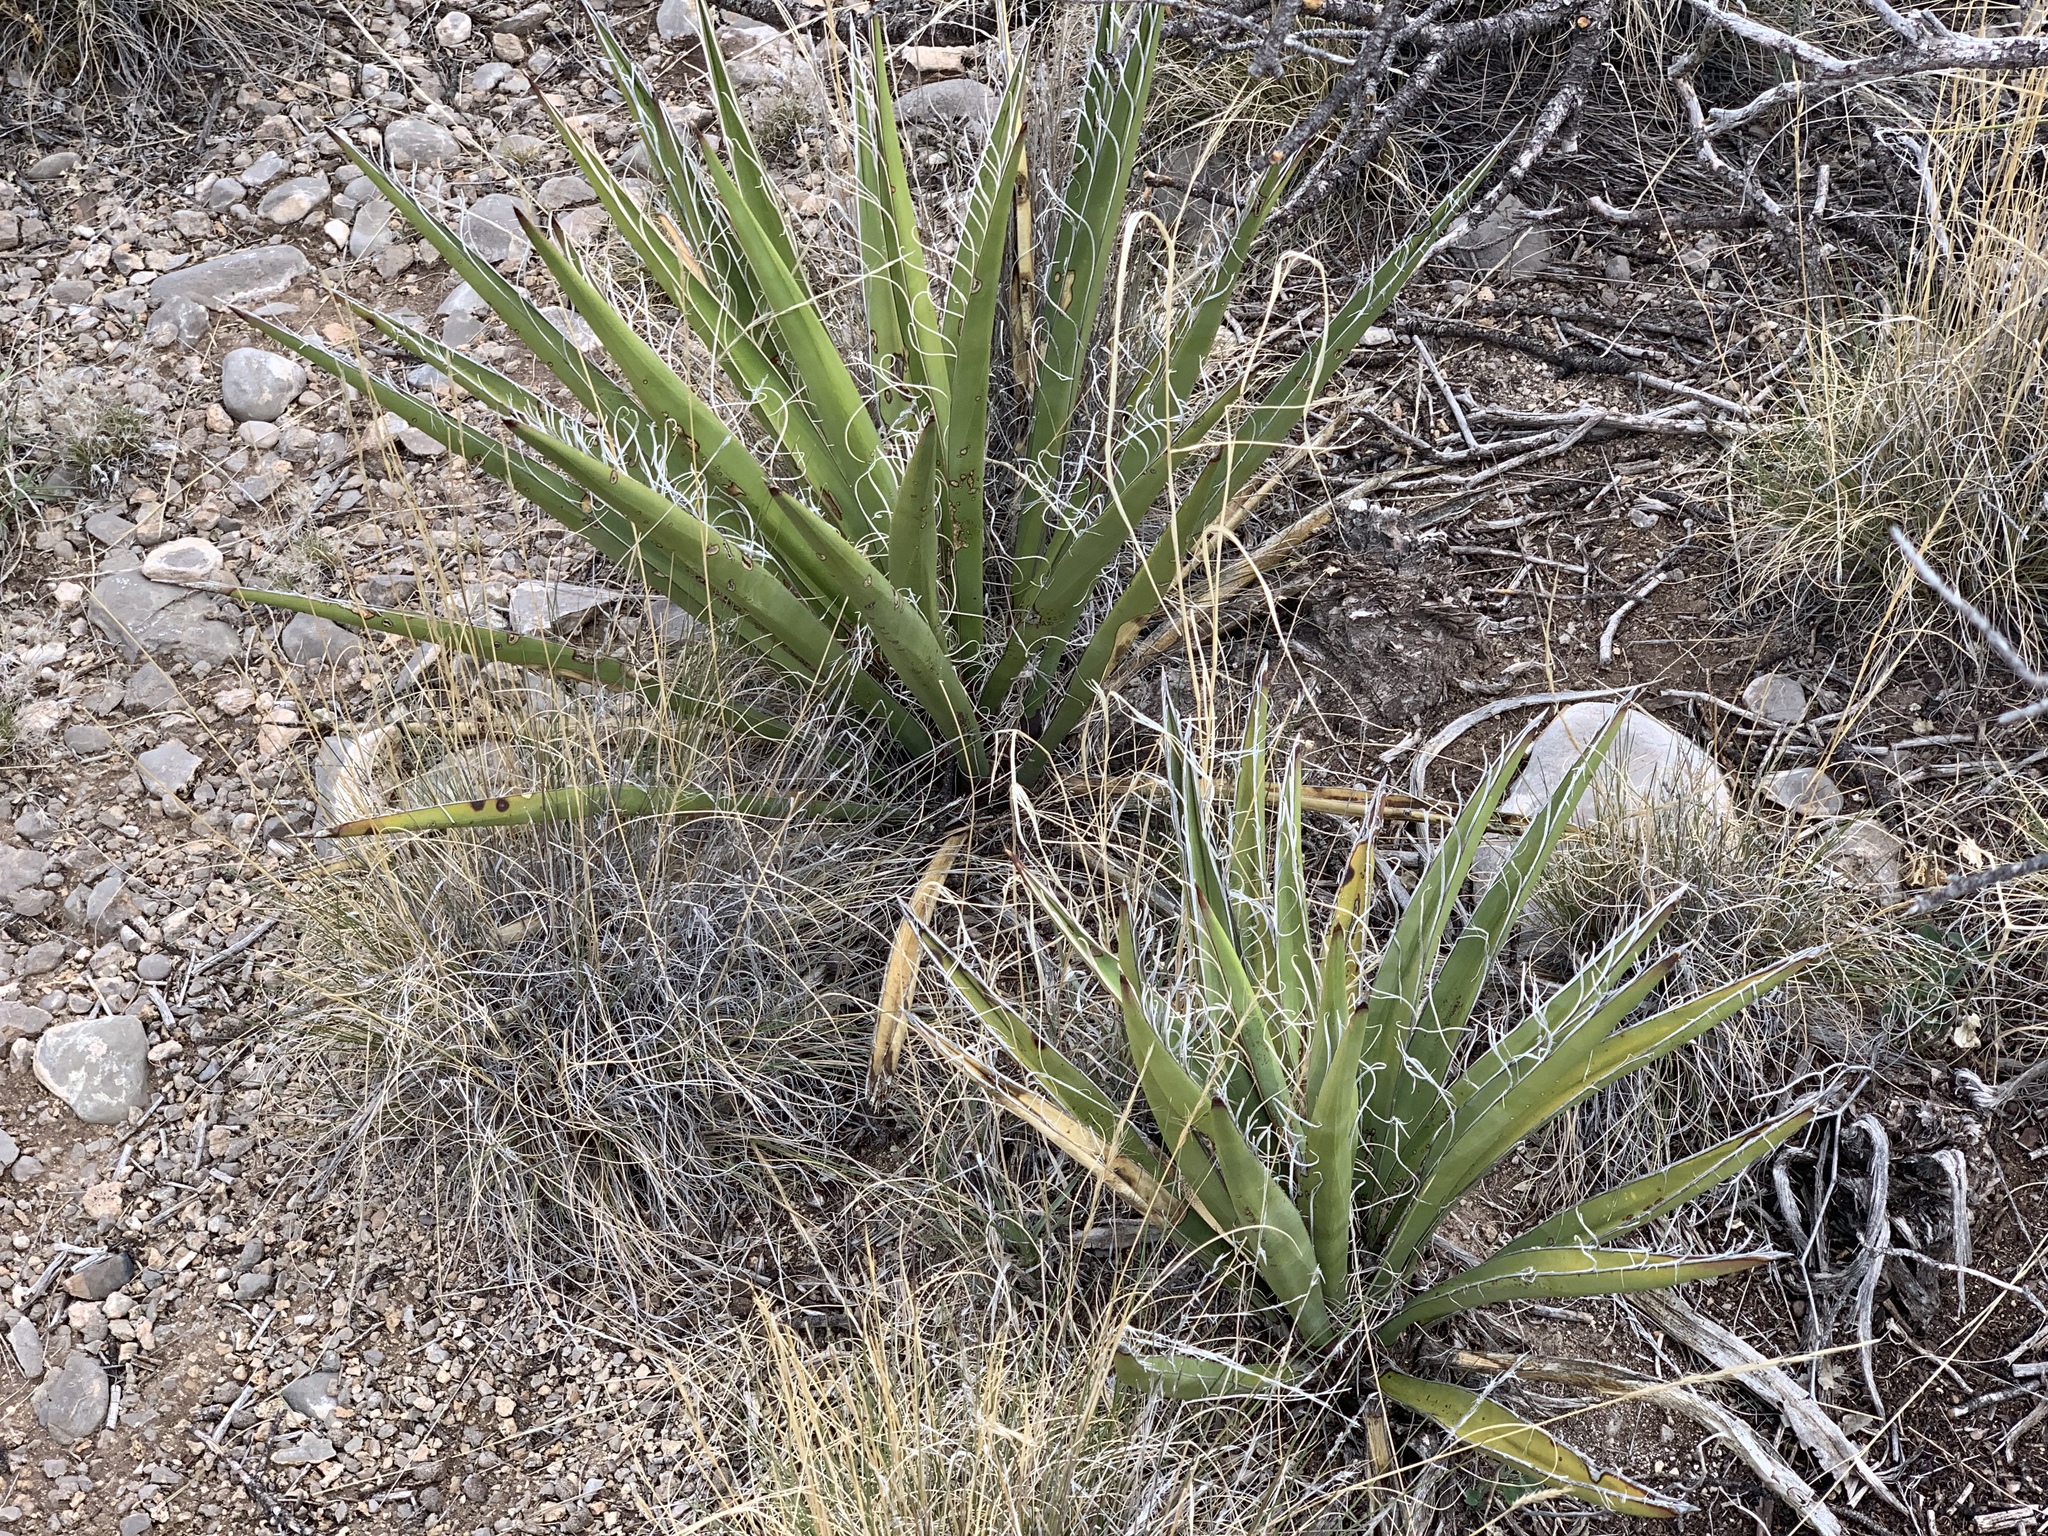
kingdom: Plantae
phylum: Tracheophyta
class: Liliopsida
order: Asparagales
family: Asparagaceae
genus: Yucca
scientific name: Yucca baccata
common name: Banana yucca
